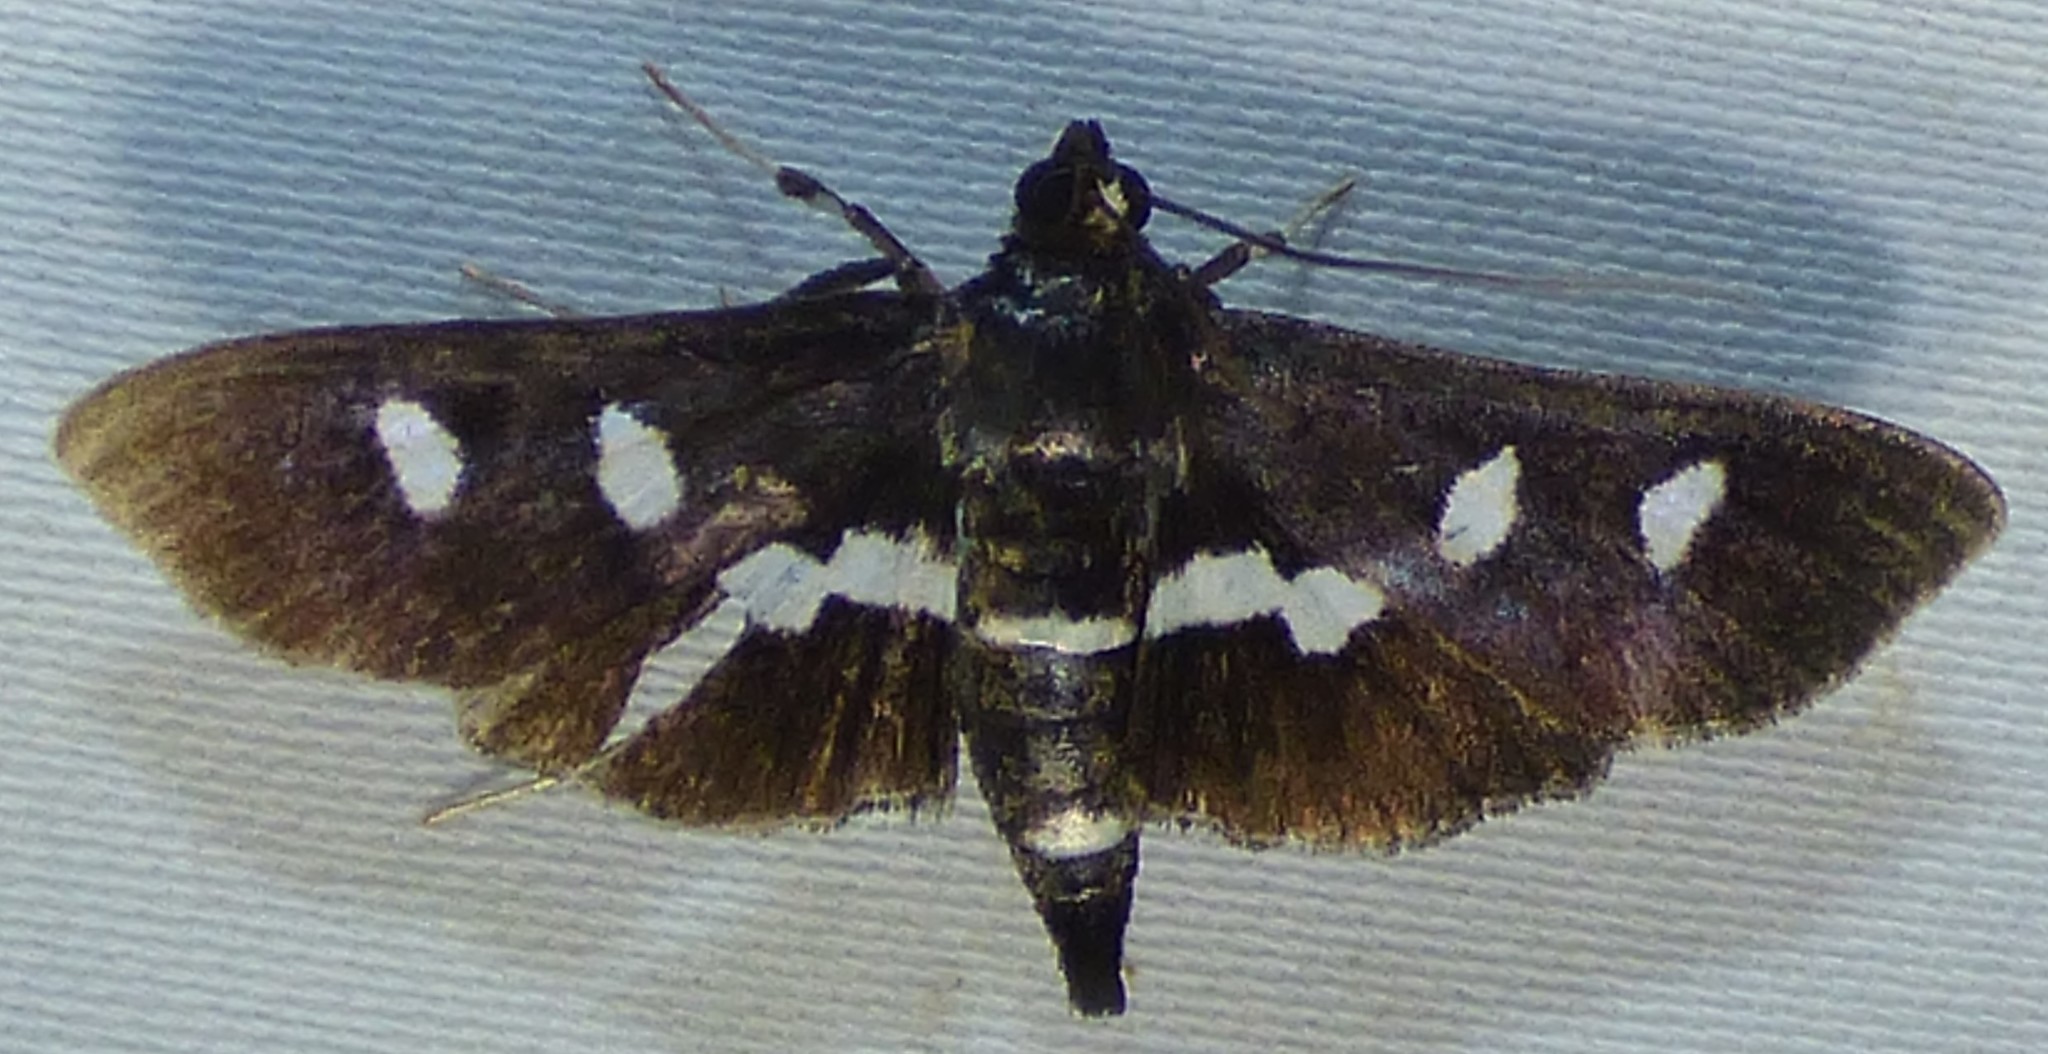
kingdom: Animalia
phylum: Arthropoda
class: Insecta
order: Lepidoptera
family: Crambidae
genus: Desmia
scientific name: Desmia funeralis
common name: Grape leaf folder moth
